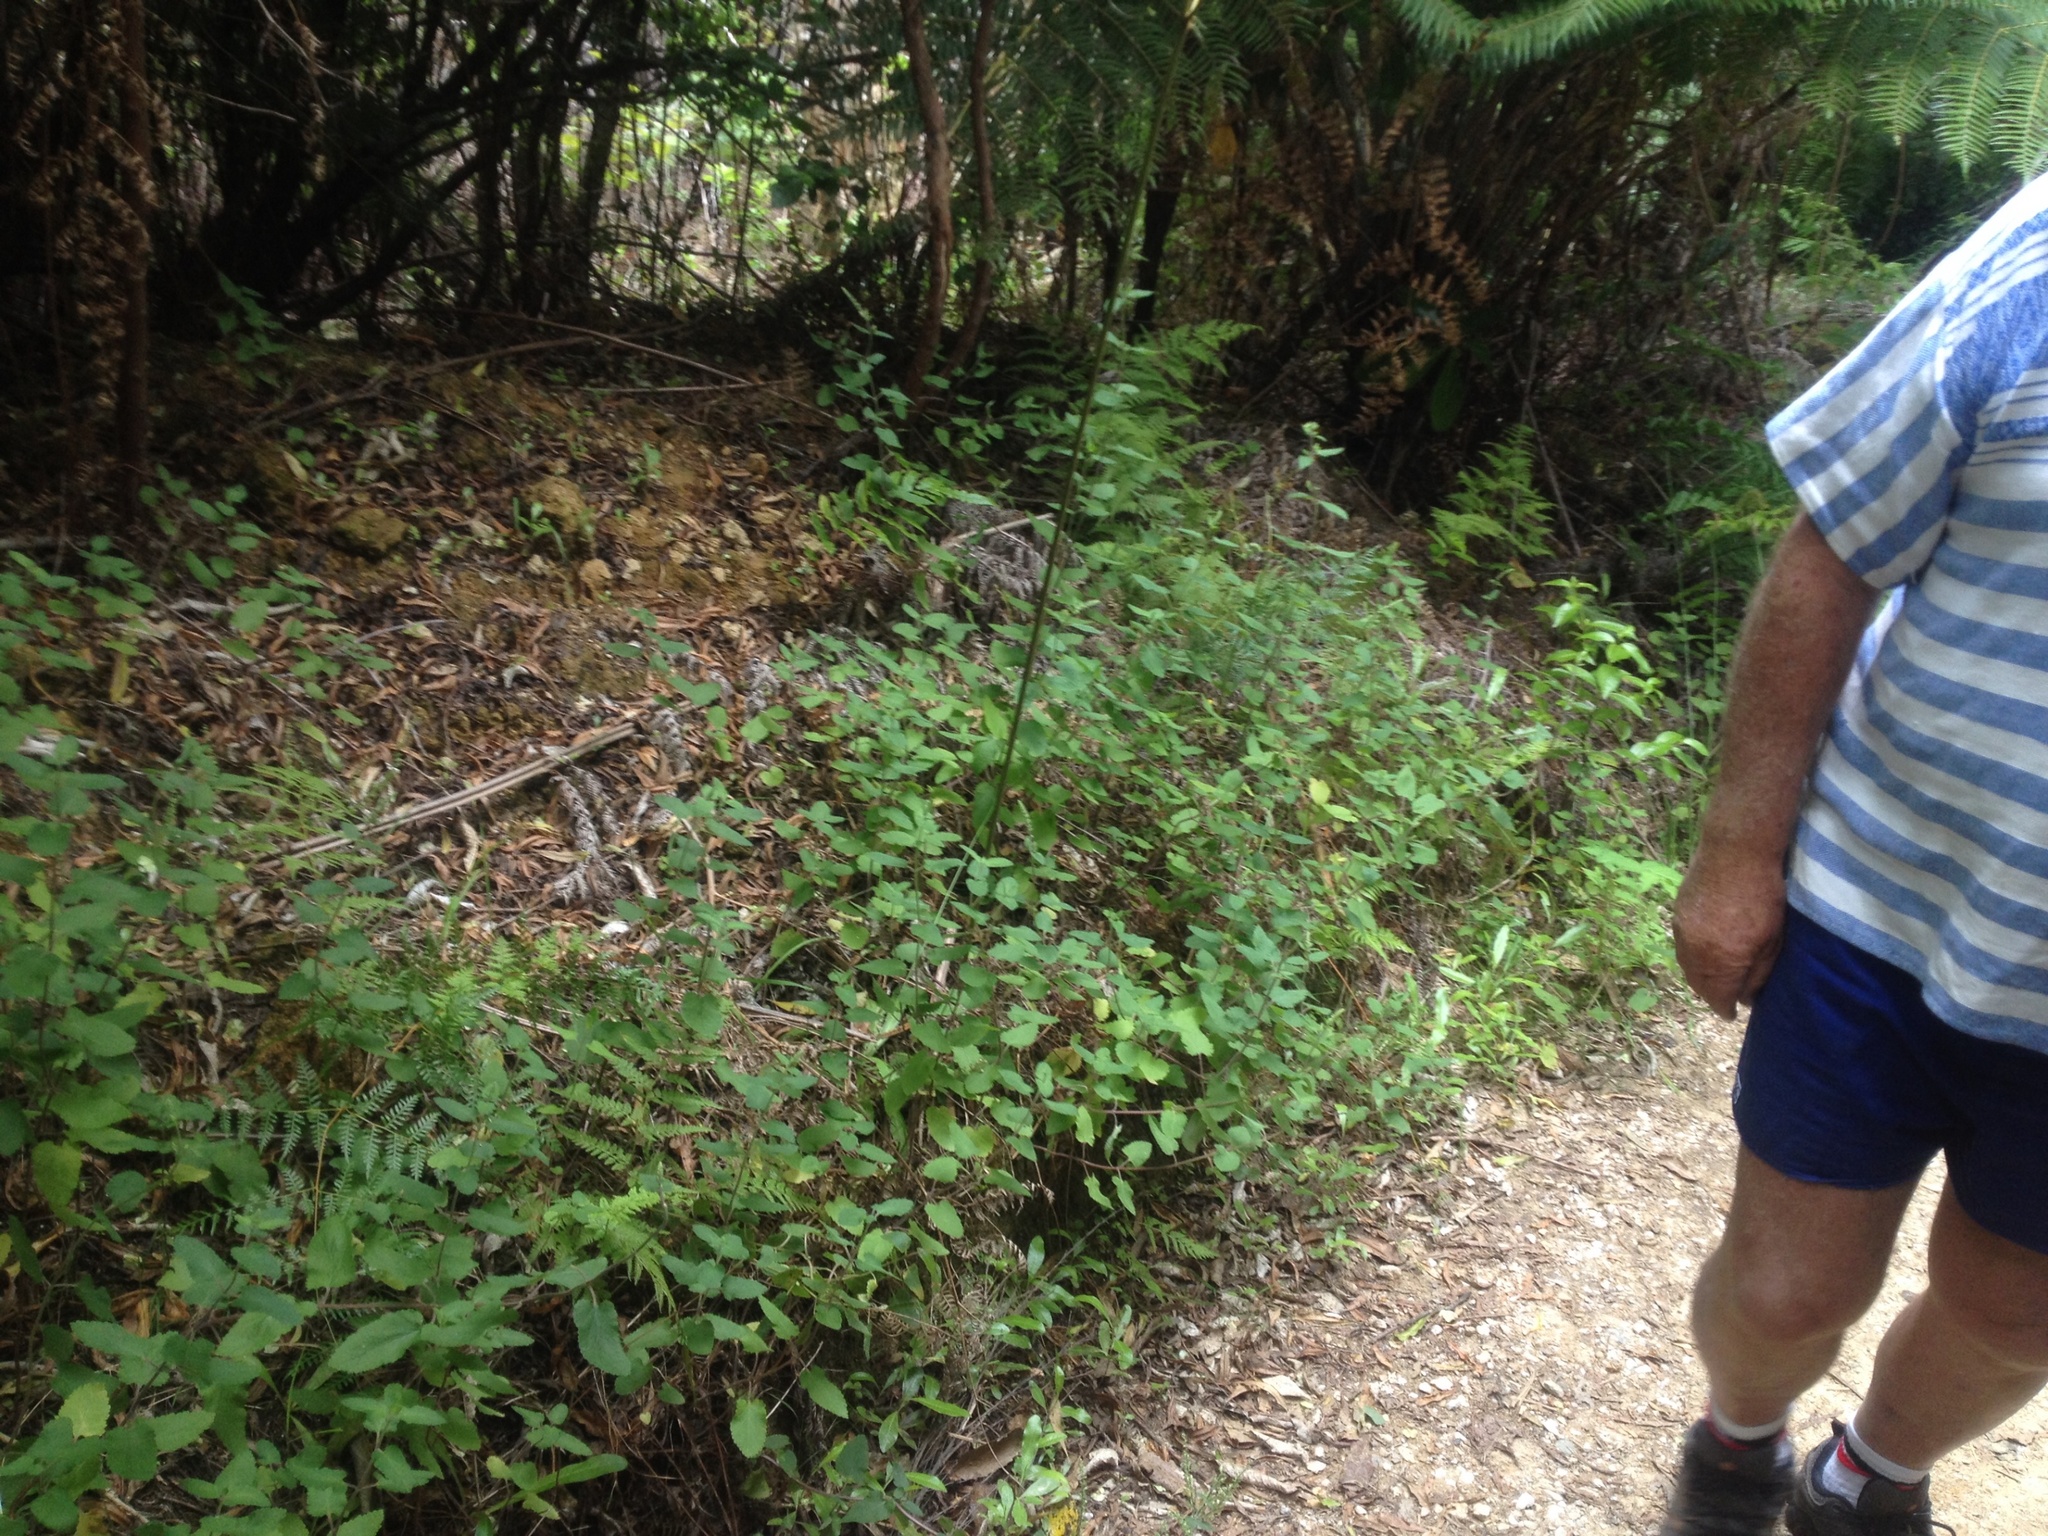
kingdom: Plantae
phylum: Tracheophyta
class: Magnoliopsida
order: Lamiales
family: Lamiaceae
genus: Teucrium
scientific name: Teucrium scorodonia
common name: Woodland germander
